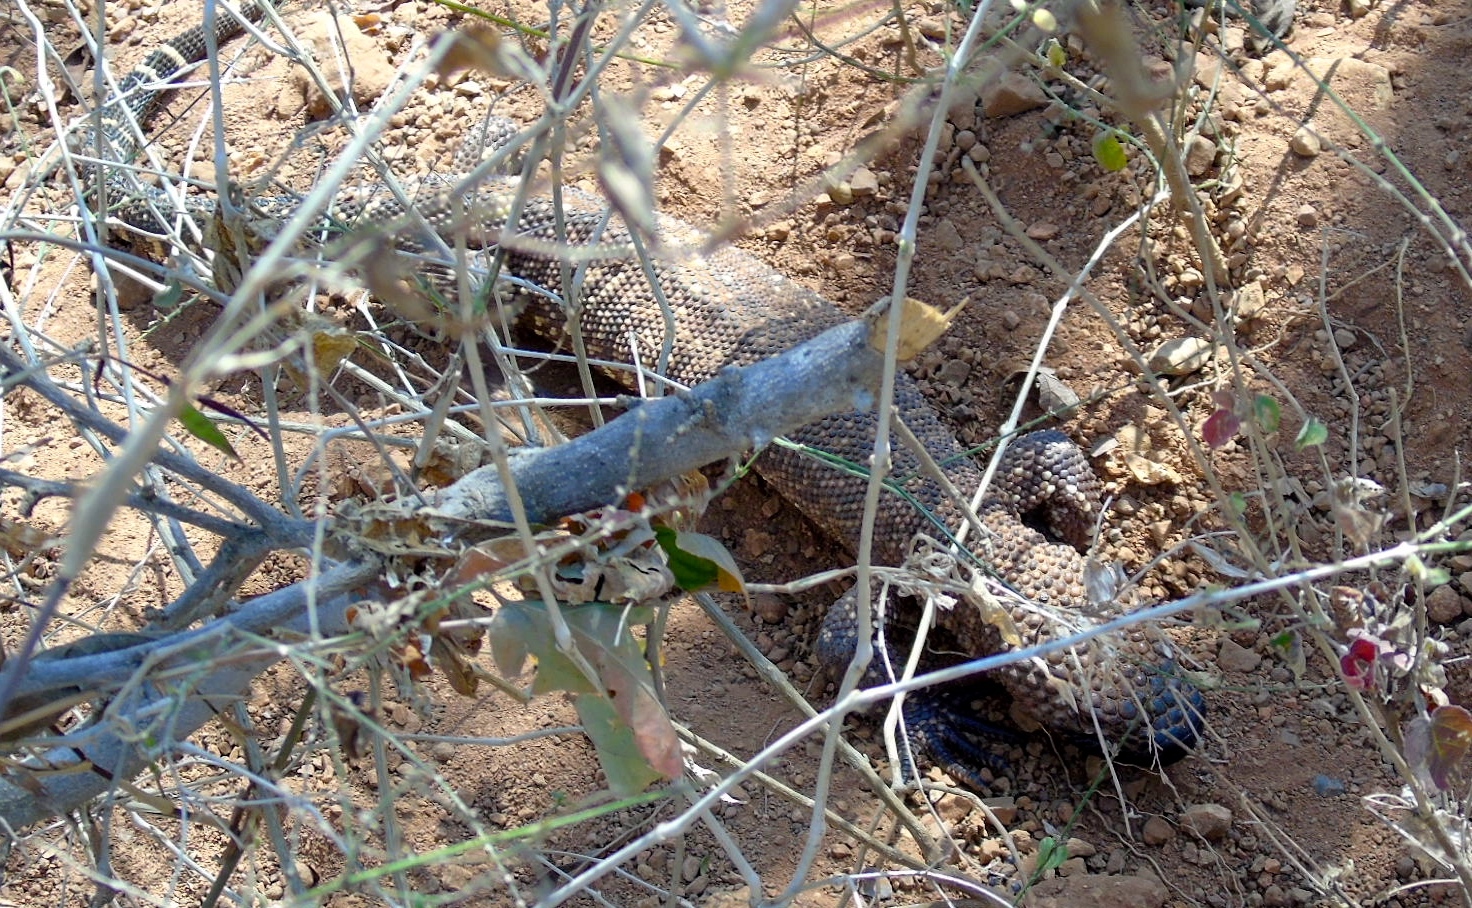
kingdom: Animalia
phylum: Chordata
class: Squamata
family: Helodermatidae
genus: Heloderma
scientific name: Heloderma horridum
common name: Mexican beaded lizard
